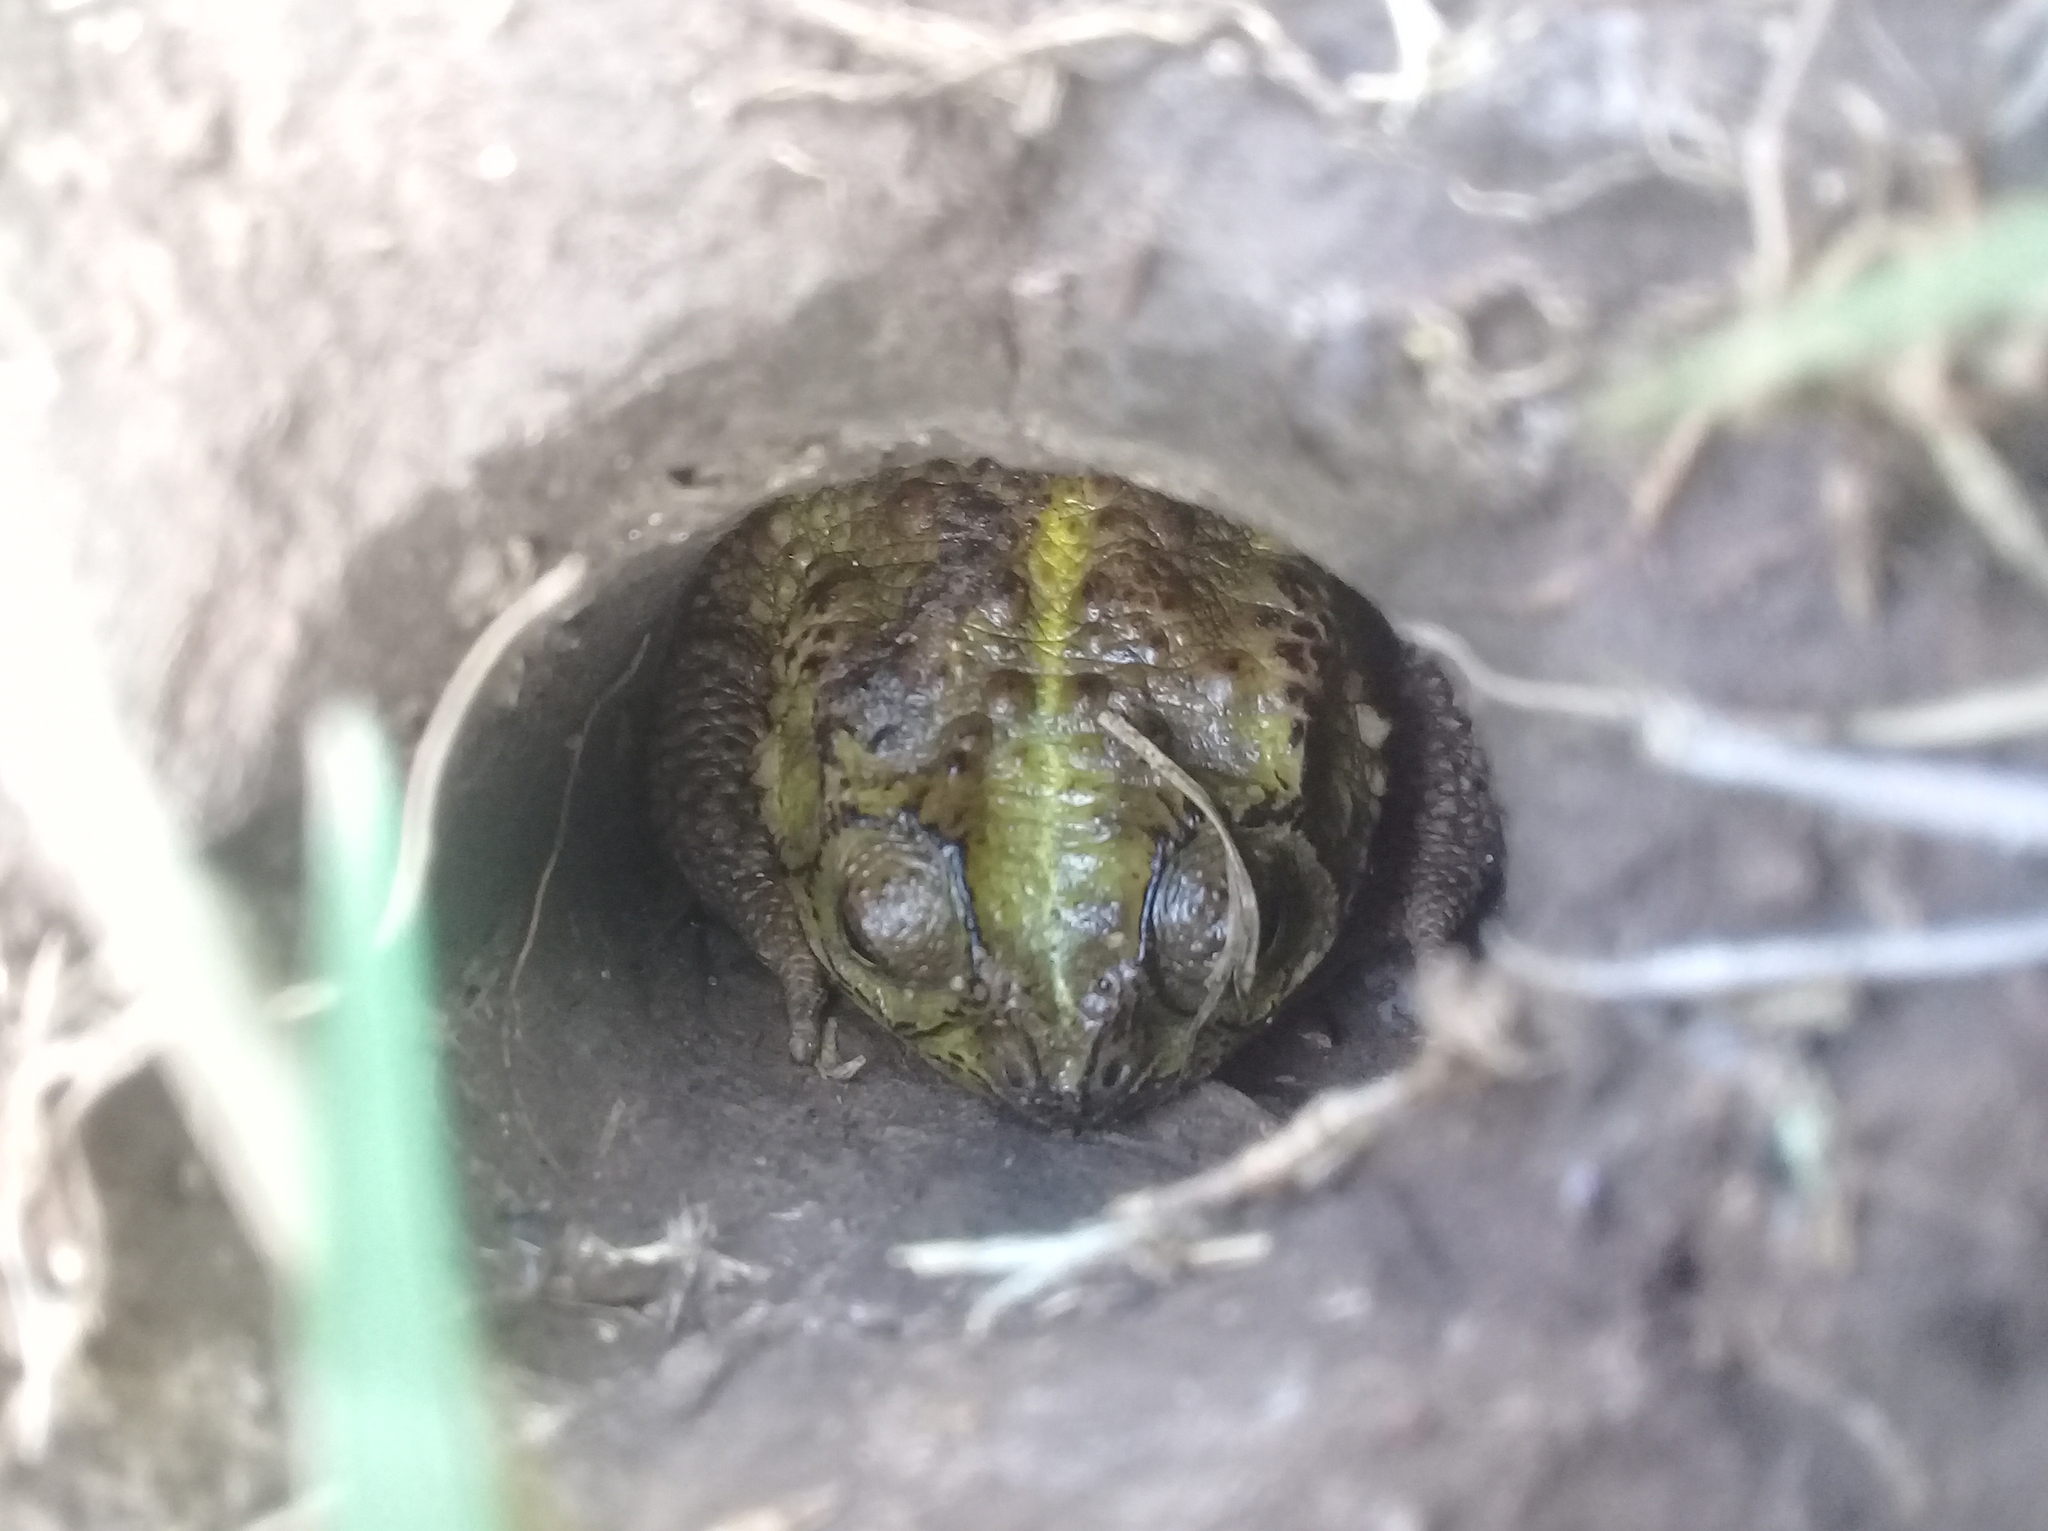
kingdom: Animalia
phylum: Chordata
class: Amphibia
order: Anura
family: Bufonidae
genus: Rhinella
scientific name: Rhinella dorbignyi
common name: D´orbigny’s toad
